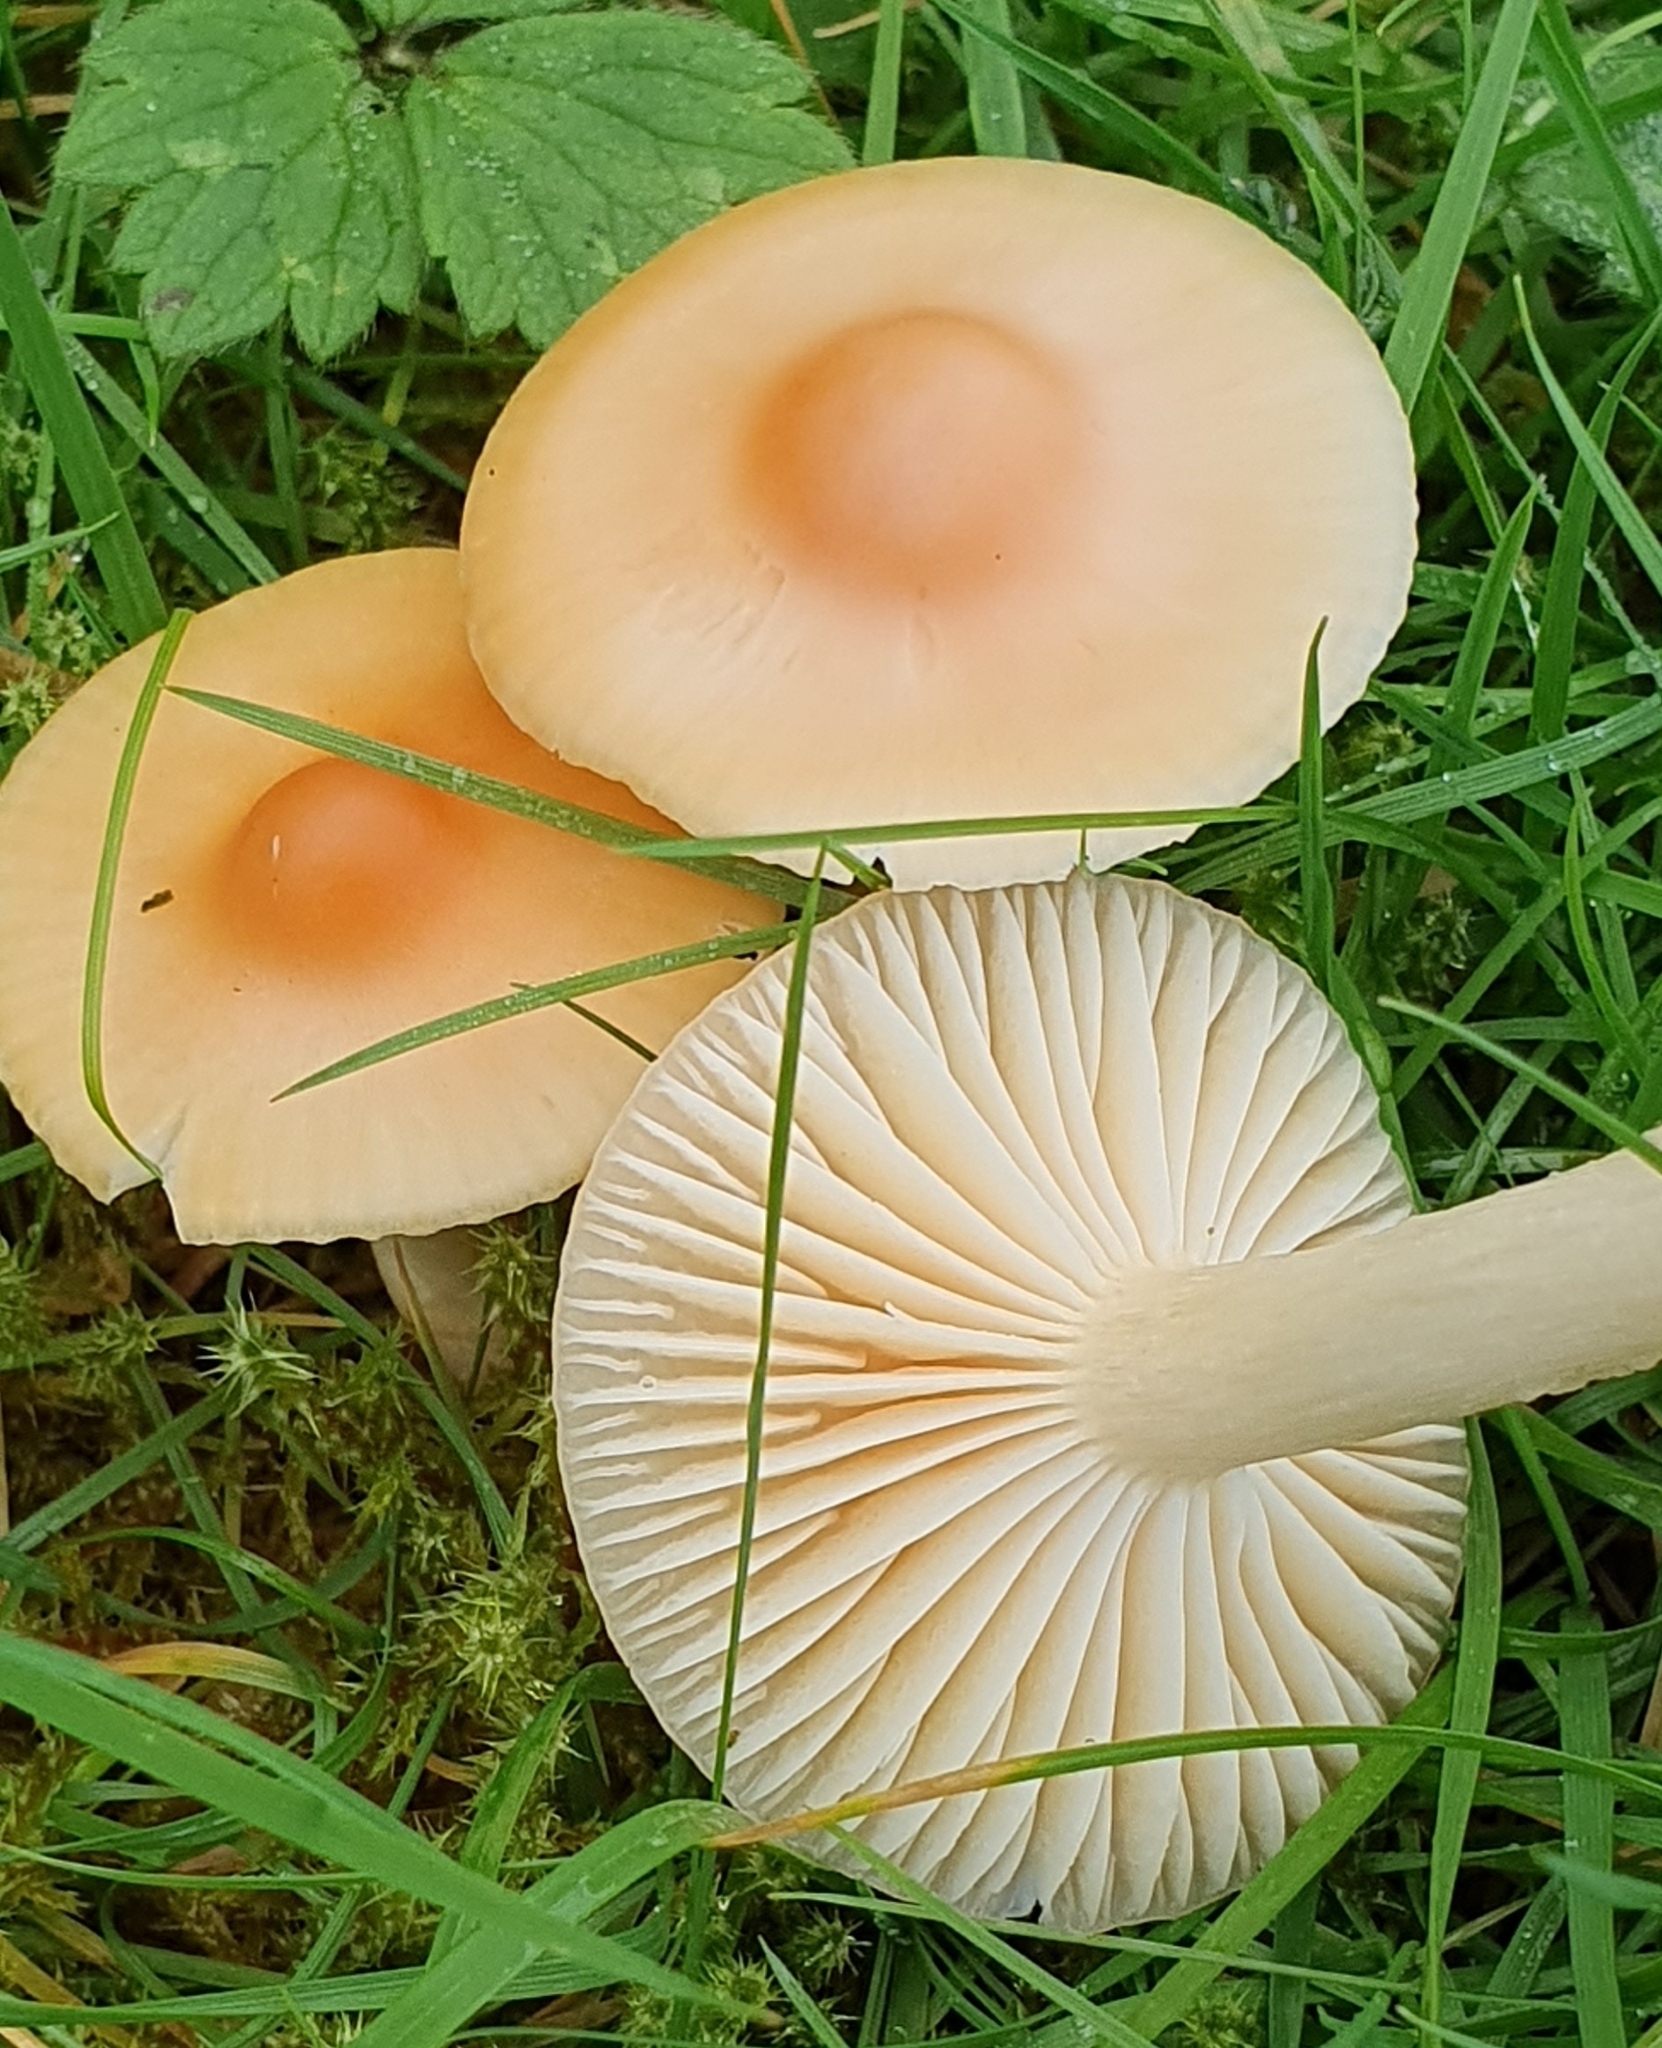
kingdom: Fungi
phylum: Basidiomycota
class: Agaricomycetes
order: Agaricales
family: Hygrophoraceae
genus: Cuphophyllus
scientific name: Cuphophyllus pratensis
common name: Meadow waxcap
